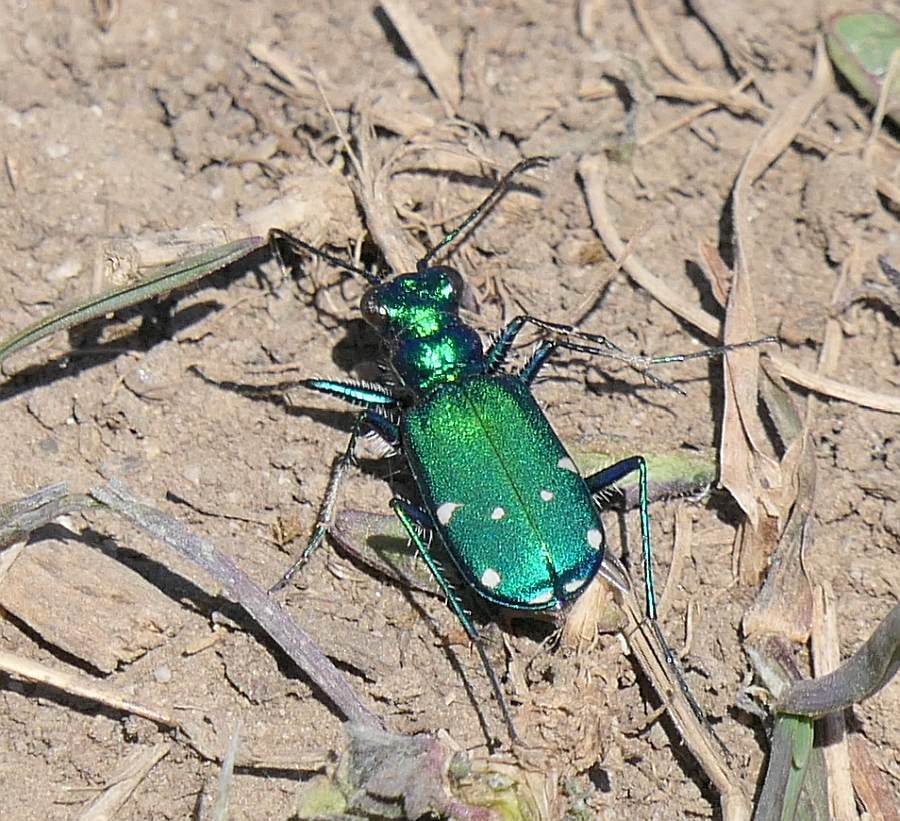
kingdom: Animalia
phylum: Arthropoda
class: Insecta
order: Coleoptera
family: Carabidae
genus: Cicindela
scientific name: Cicindela sexguttata
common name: Six-spotted tiger beetle
